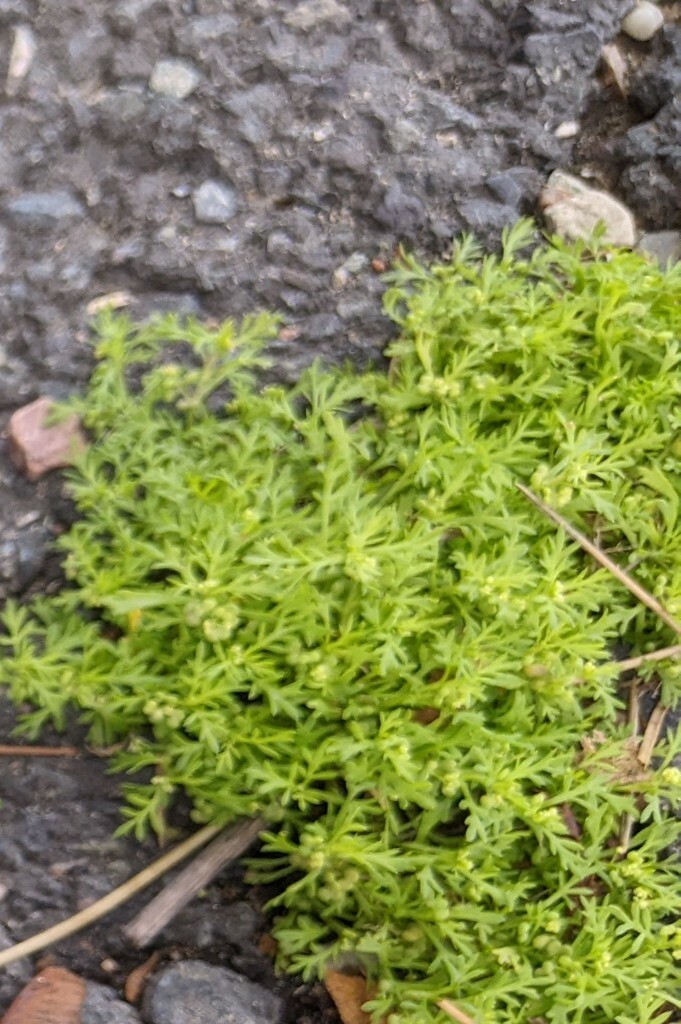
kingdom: Plantae
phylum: Tracheophyta
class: Magnoliopsida
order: Brassicales
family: Brassicaceae
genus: Lepidium
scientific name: Lepidium didymum
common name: Lesser swinecress
